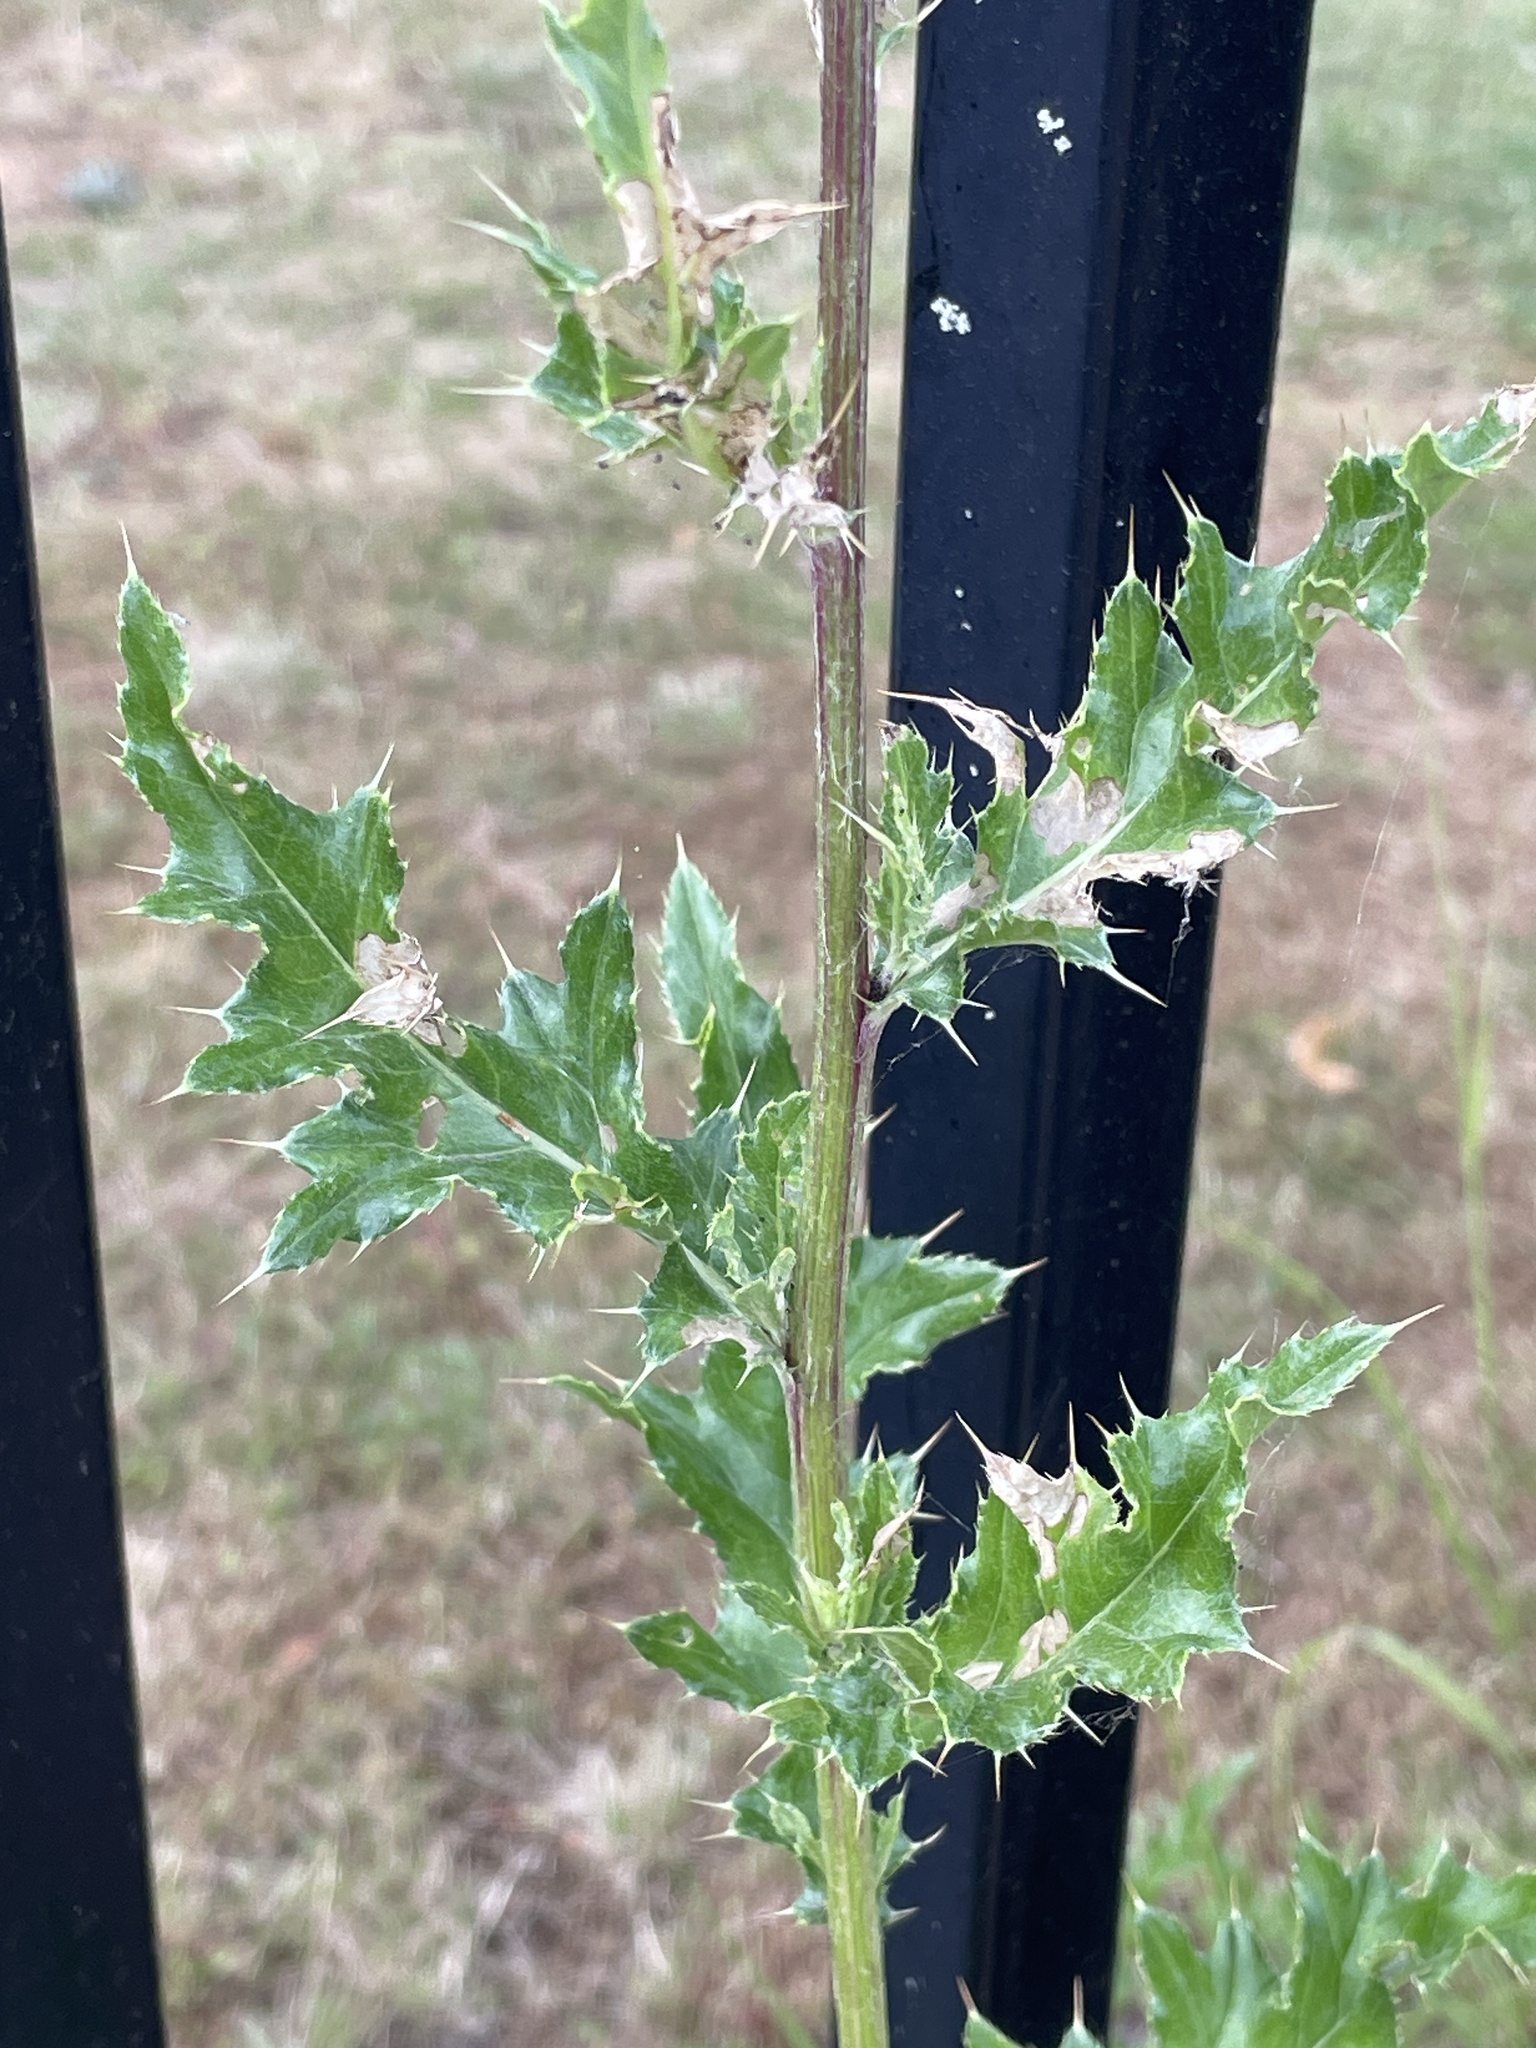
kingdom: Plantae
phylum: Tracheophyta
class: Magnoliopsida
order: Asterales
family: Asteraceae
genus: Cirsium
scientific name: Cirsium arvense
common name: Creeping thistle
